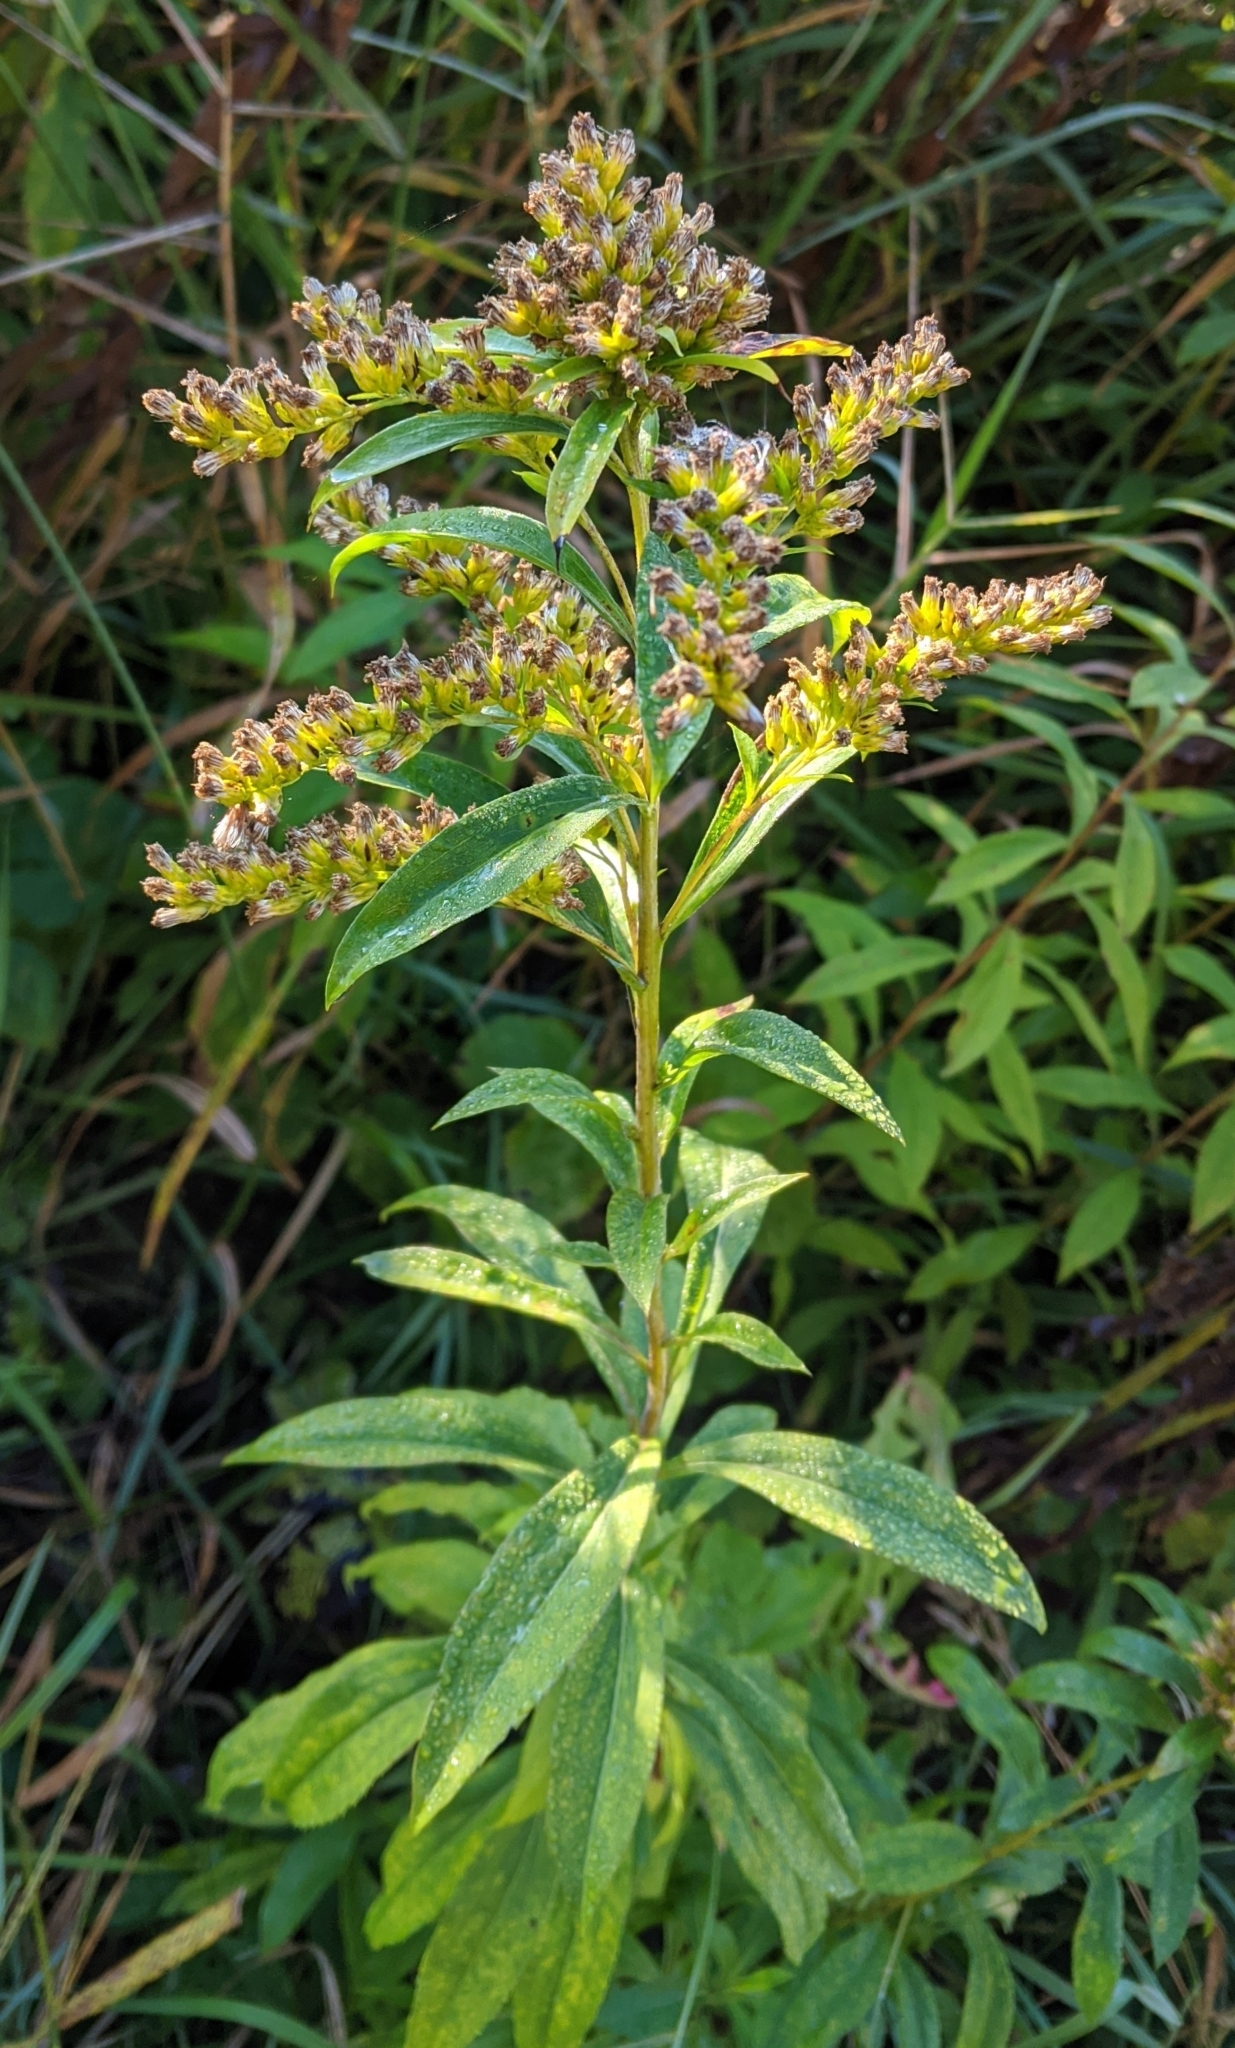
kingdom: Plantae
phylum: Tracheophyta
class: Magnoliopsida
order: Asterales
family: Asteraceae
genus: Solidago
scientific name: Solidago gigantea
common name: Giant goldenrod
